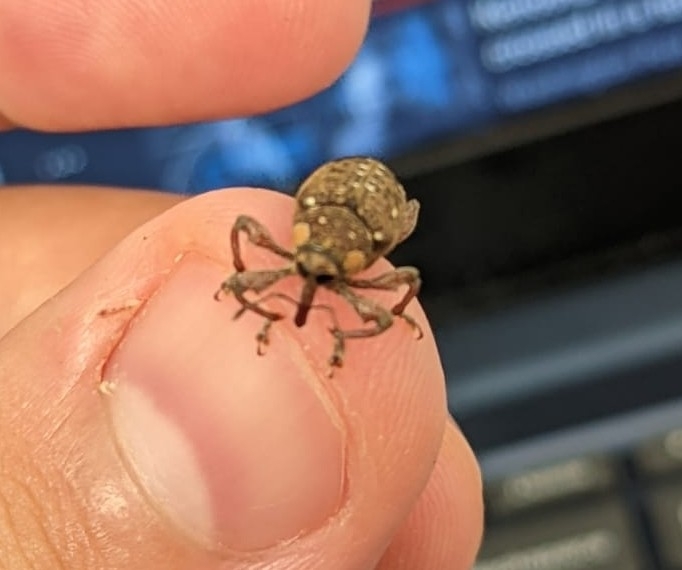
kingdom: Animalia
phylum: Arthropoda
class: Insecta
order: Coleoptera
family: Curculionidae
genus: Marshallius
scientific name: Marshallius
